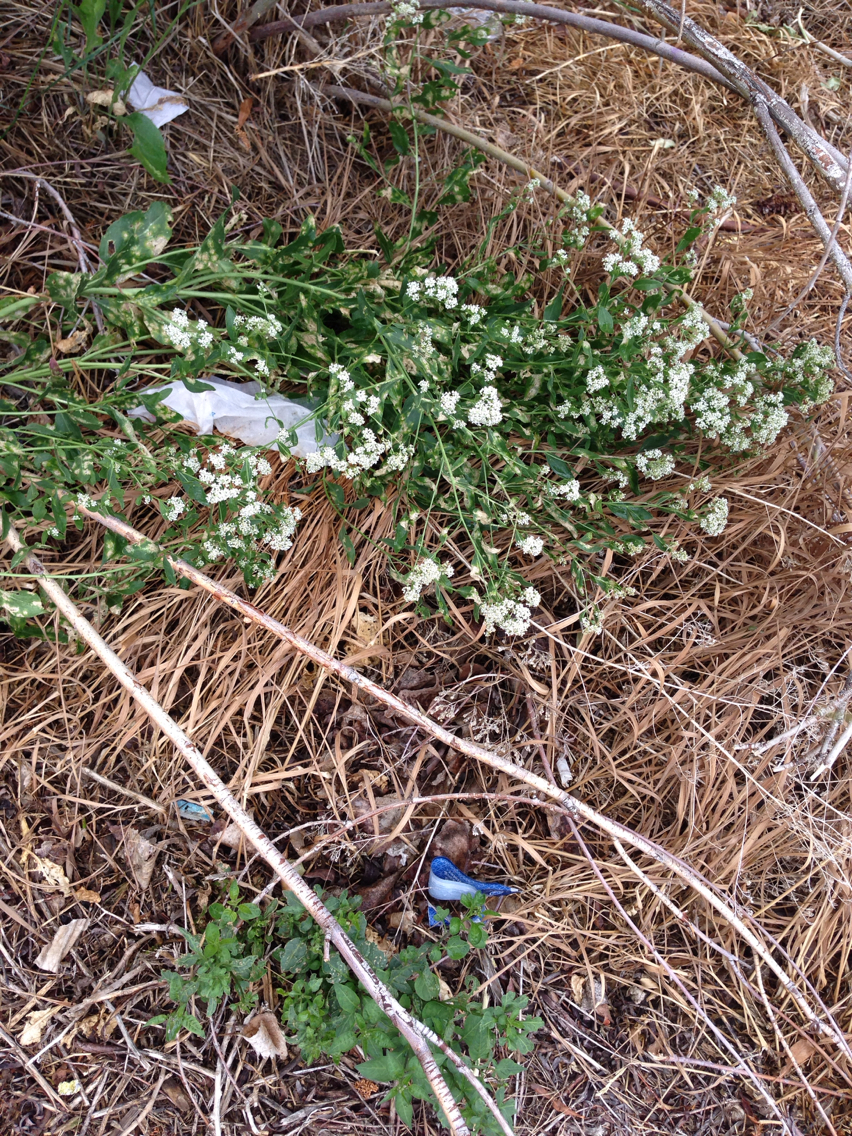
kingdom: Plantae
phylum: Tracheophyta
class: Magnoliopsida
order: Brassicales
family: Brassicaceae
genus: Lepidium
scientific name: Lepidium latifolium
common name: Dittander
